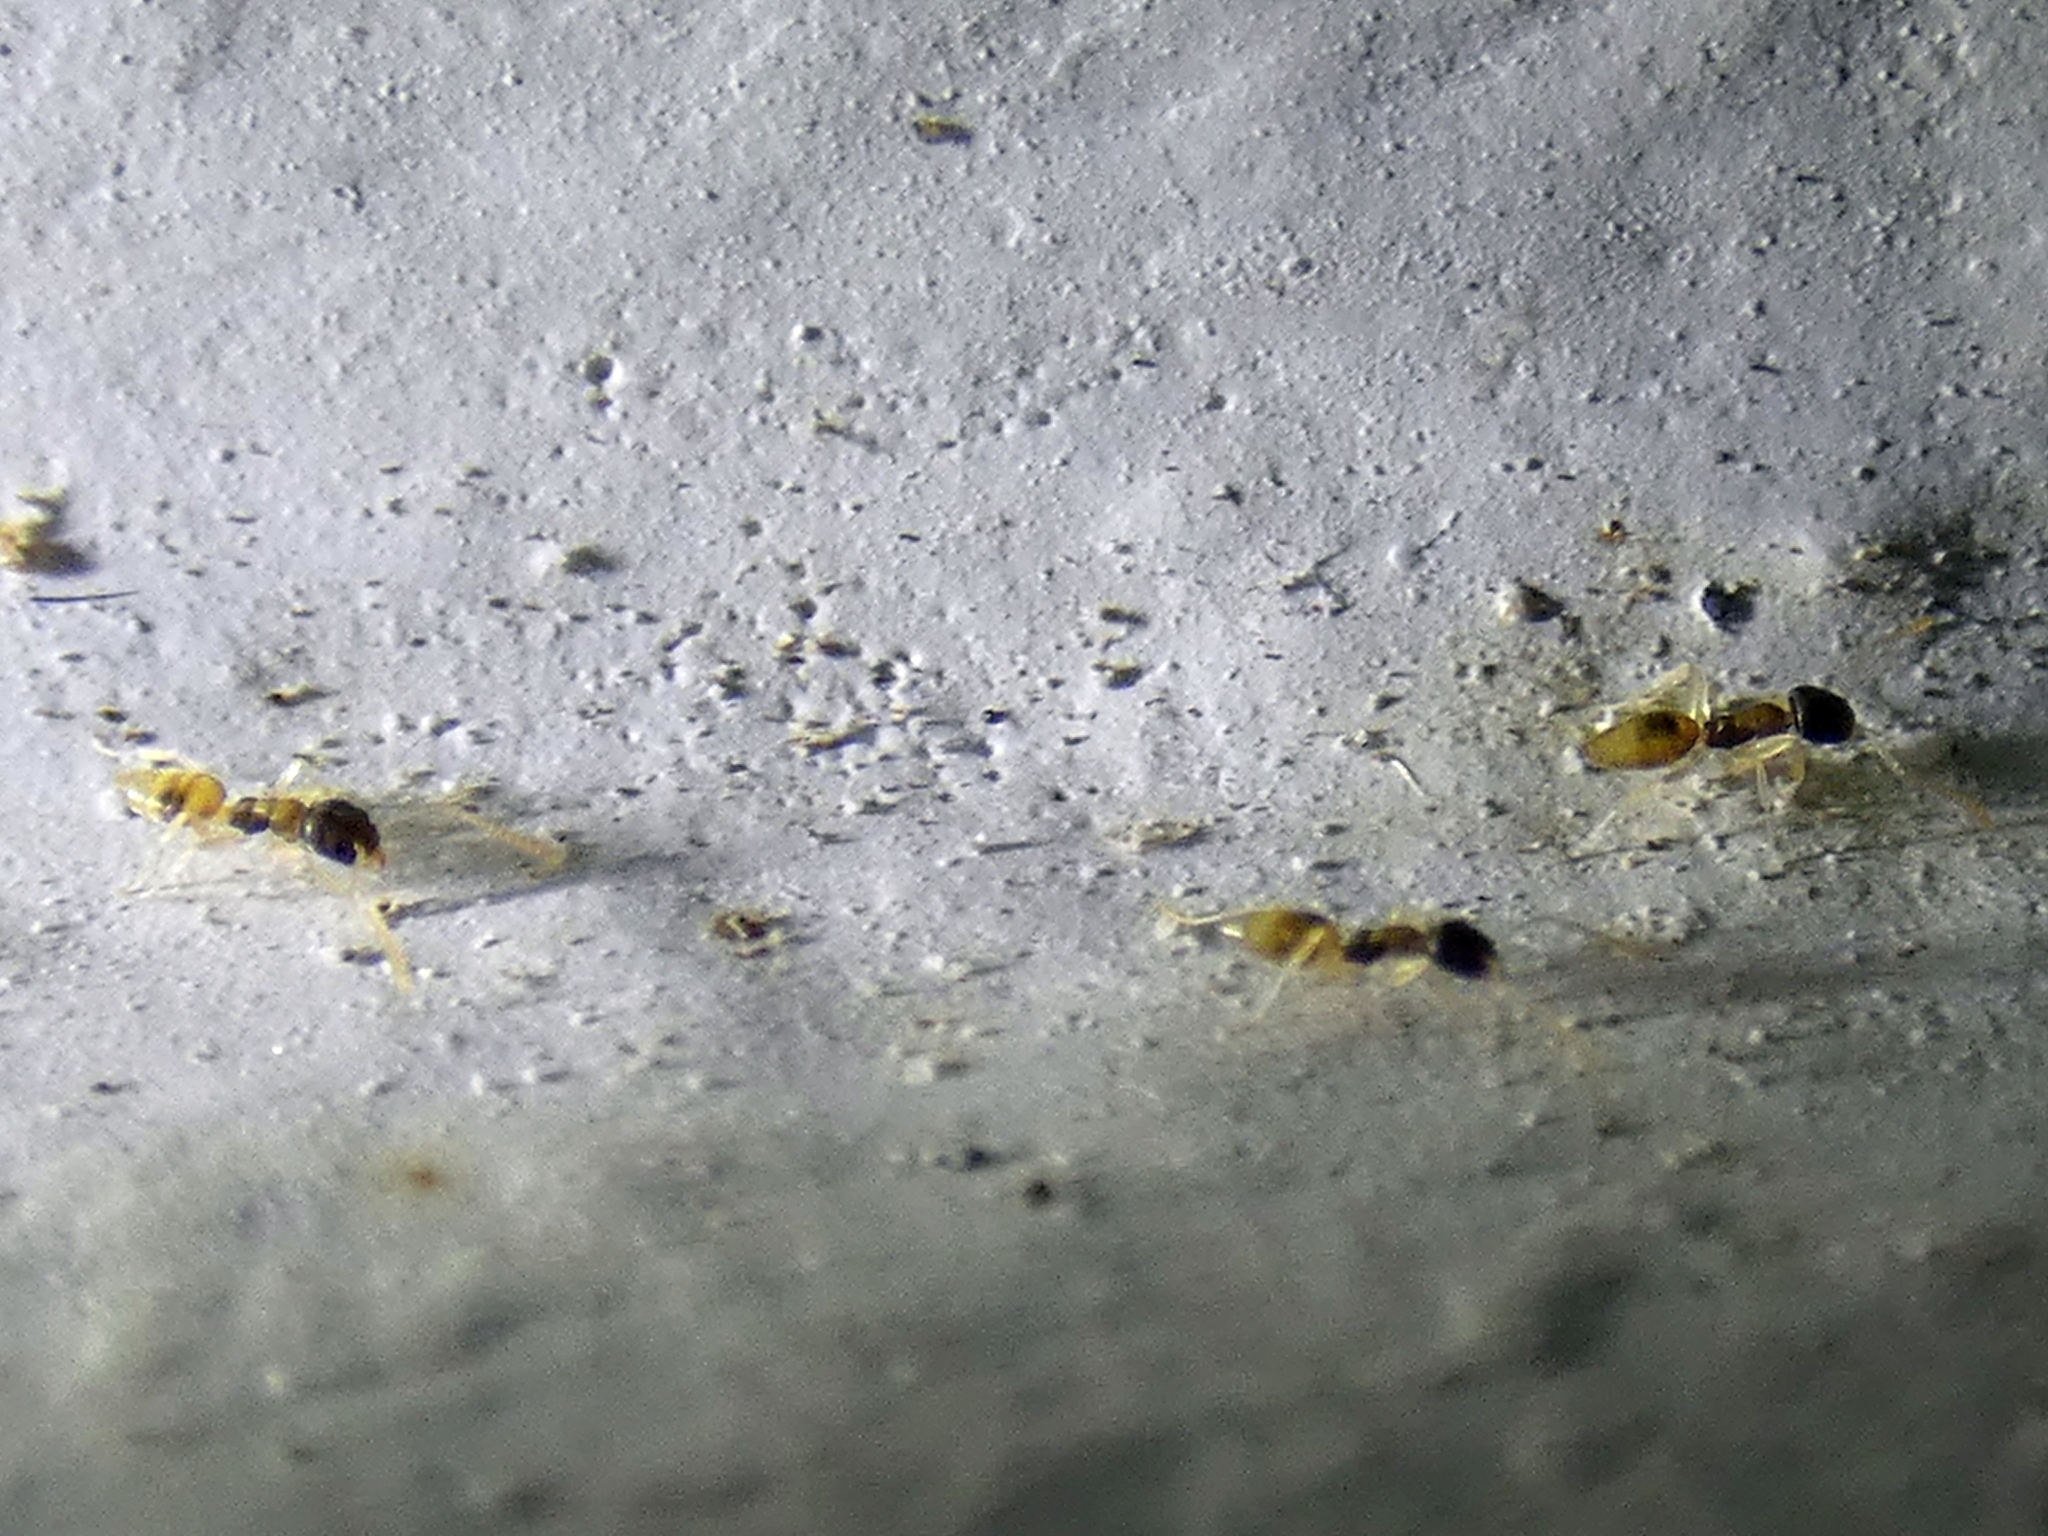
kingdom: Animalia
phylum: Arthropoda
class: Insecta
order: Hymenoptera
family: Formicidae
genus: Tapinoma
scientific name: Tapinoma melanocephalum
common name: Ghost ant
